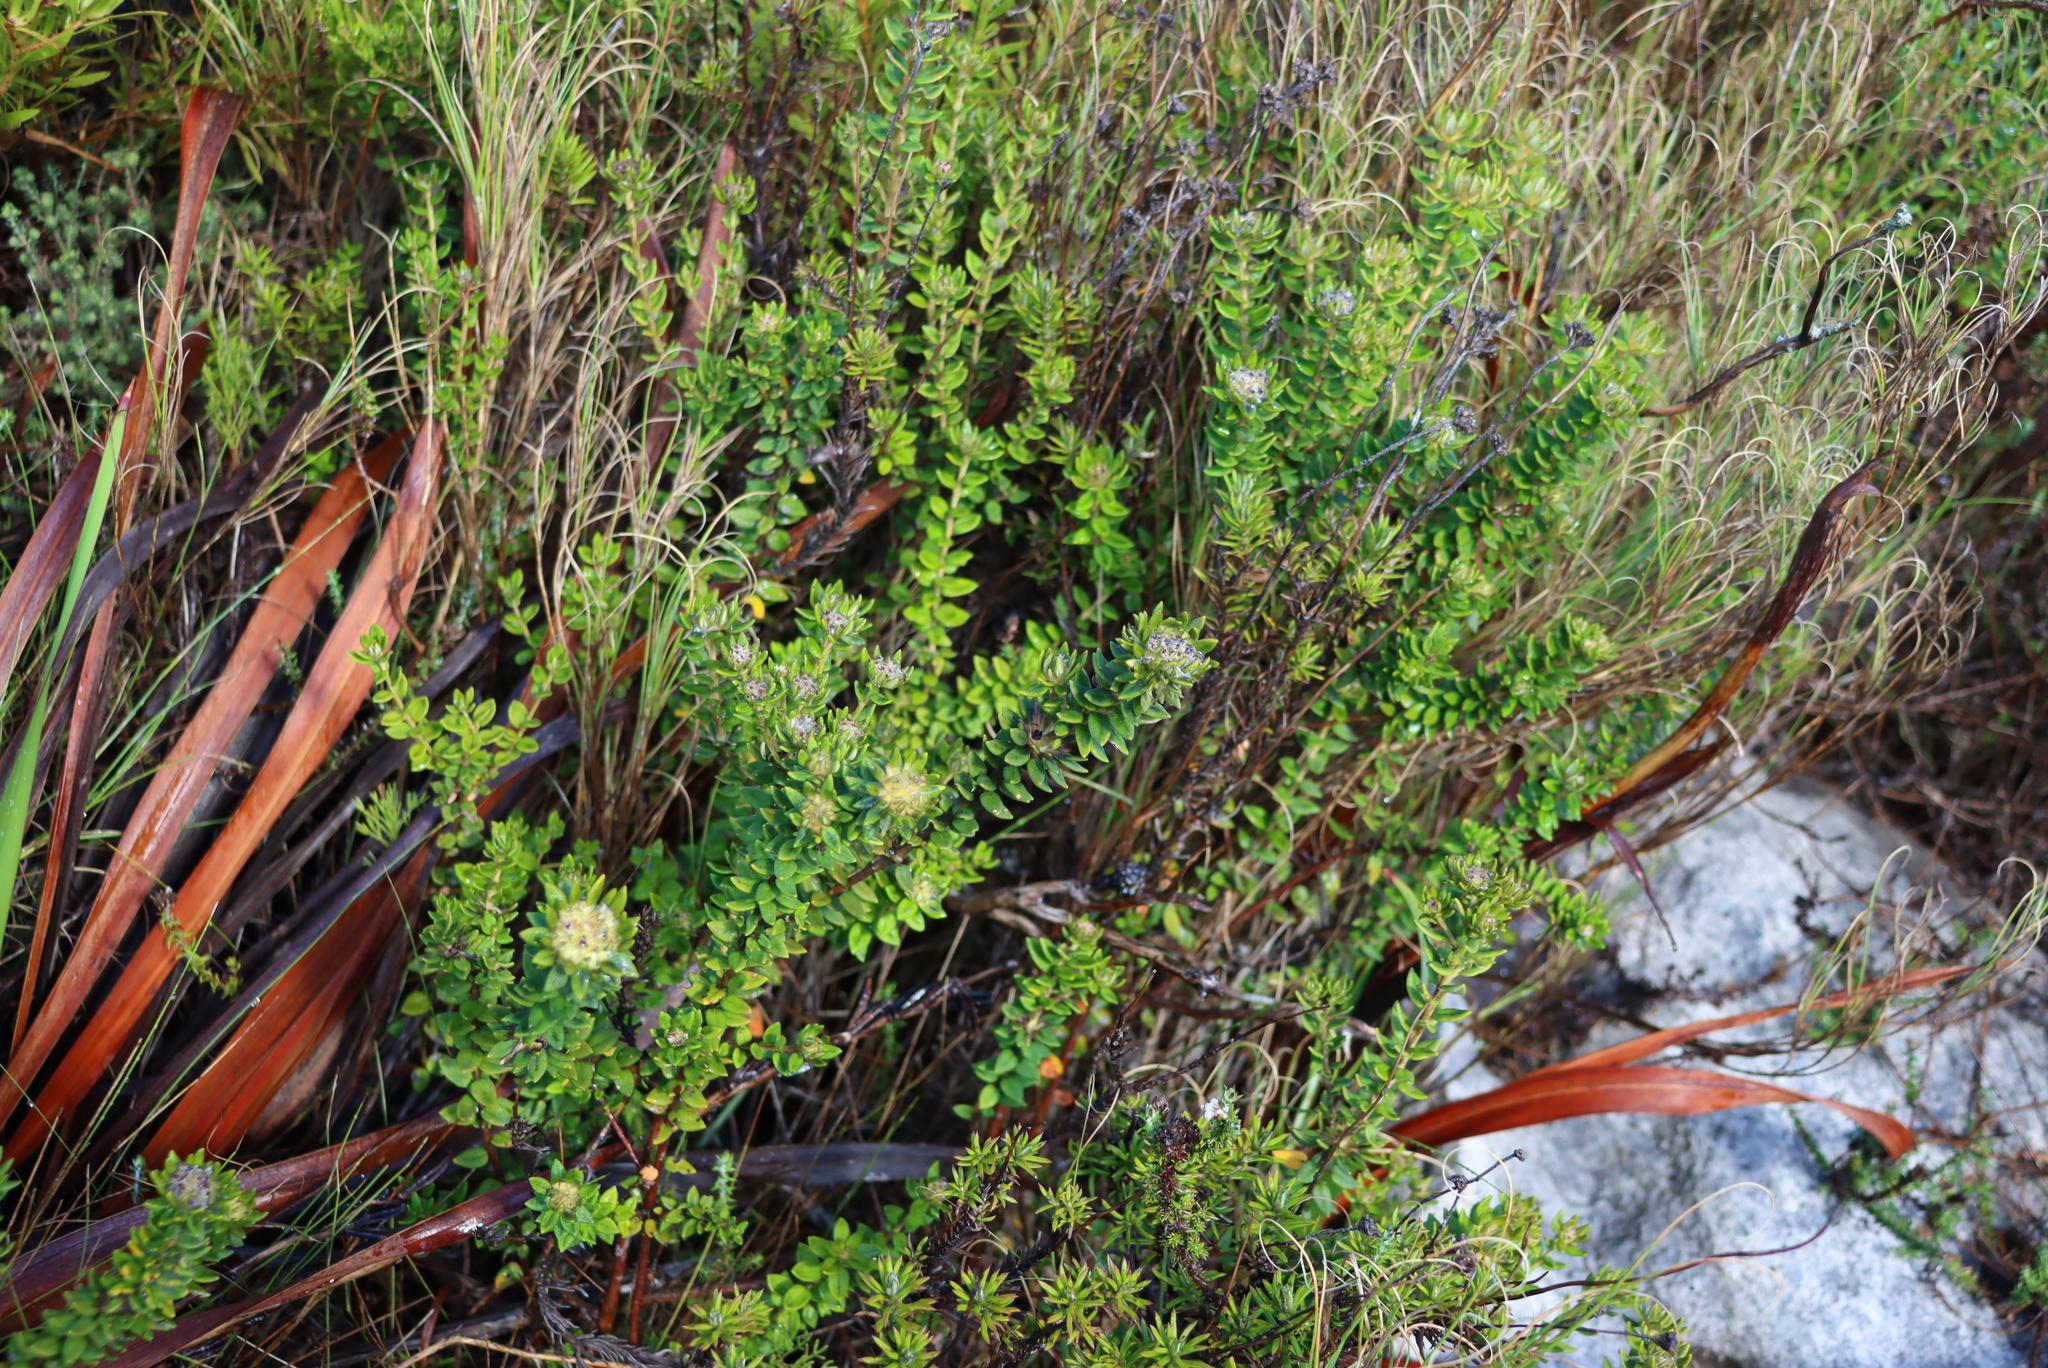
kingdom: Plantae
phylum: Tracheophyta
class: Magnoliopsida
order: Rosales
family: Rhamnaceae
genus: Phylica
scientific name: Phylica dioica
